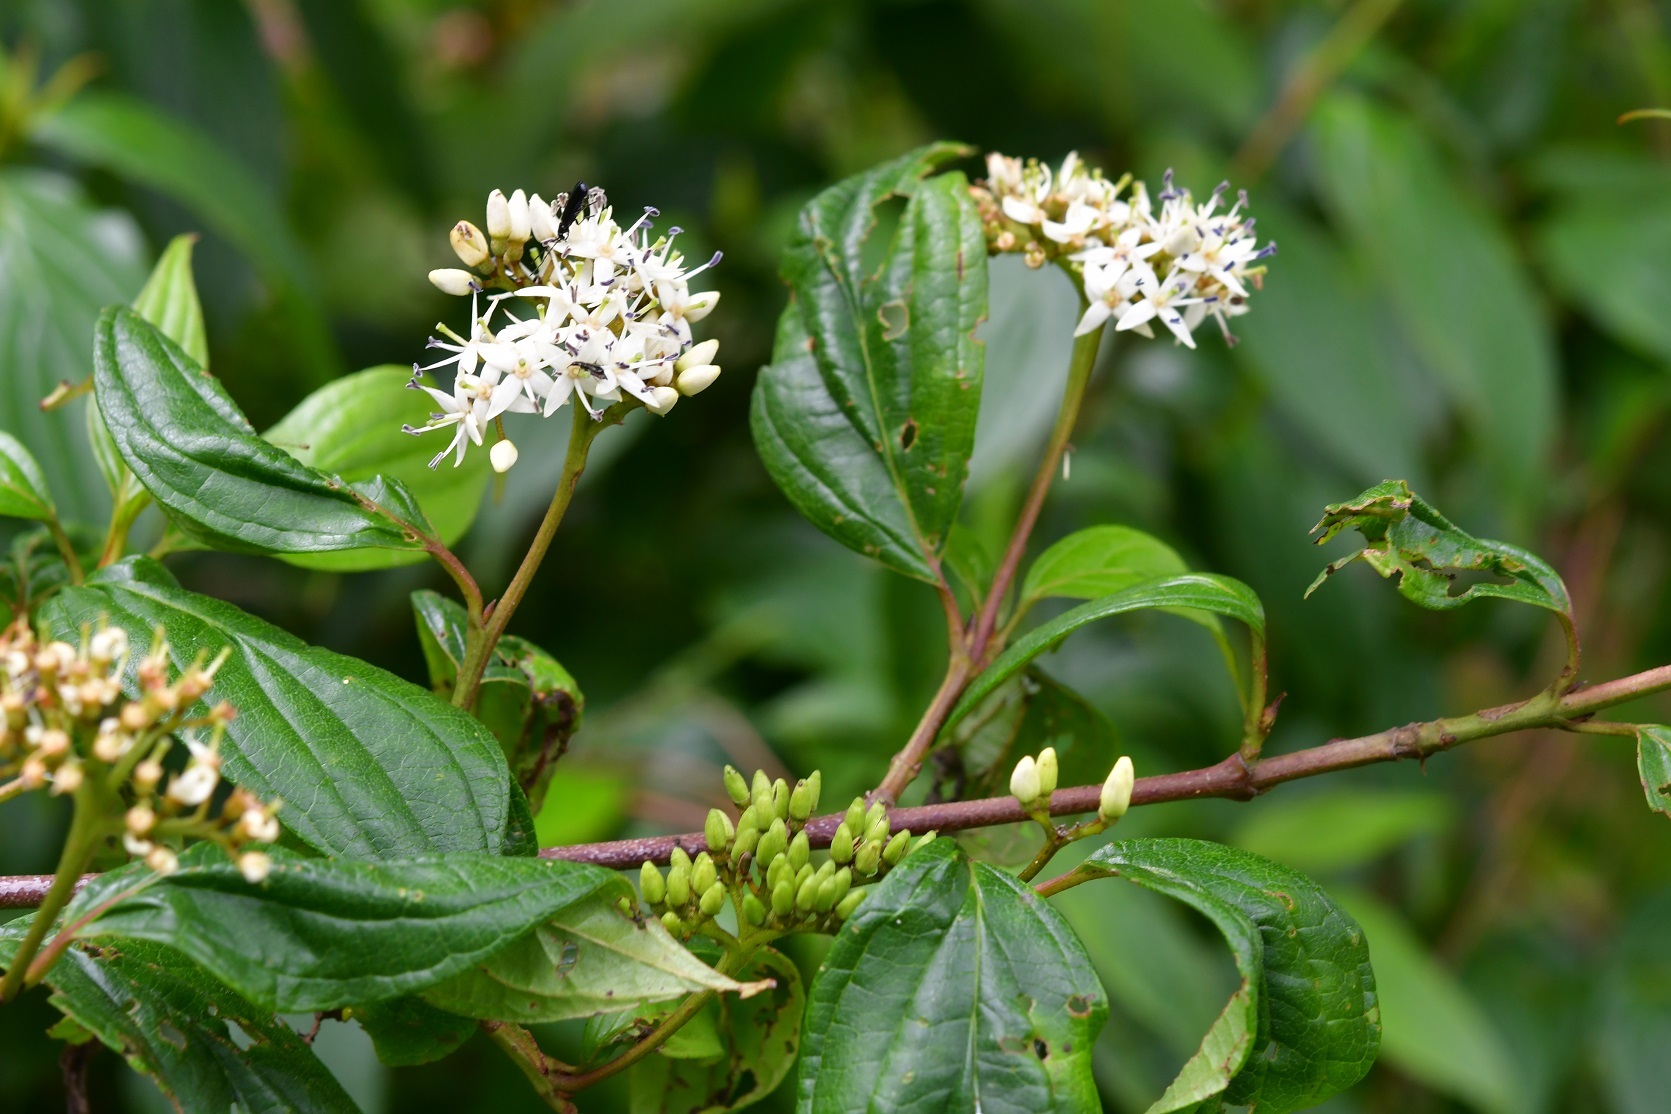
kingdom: Plantae
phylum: Tracheophyta
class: Magnoliopsida
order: Cornales
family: Cornaceae
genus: Cornus
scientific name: Cornus excelsa
